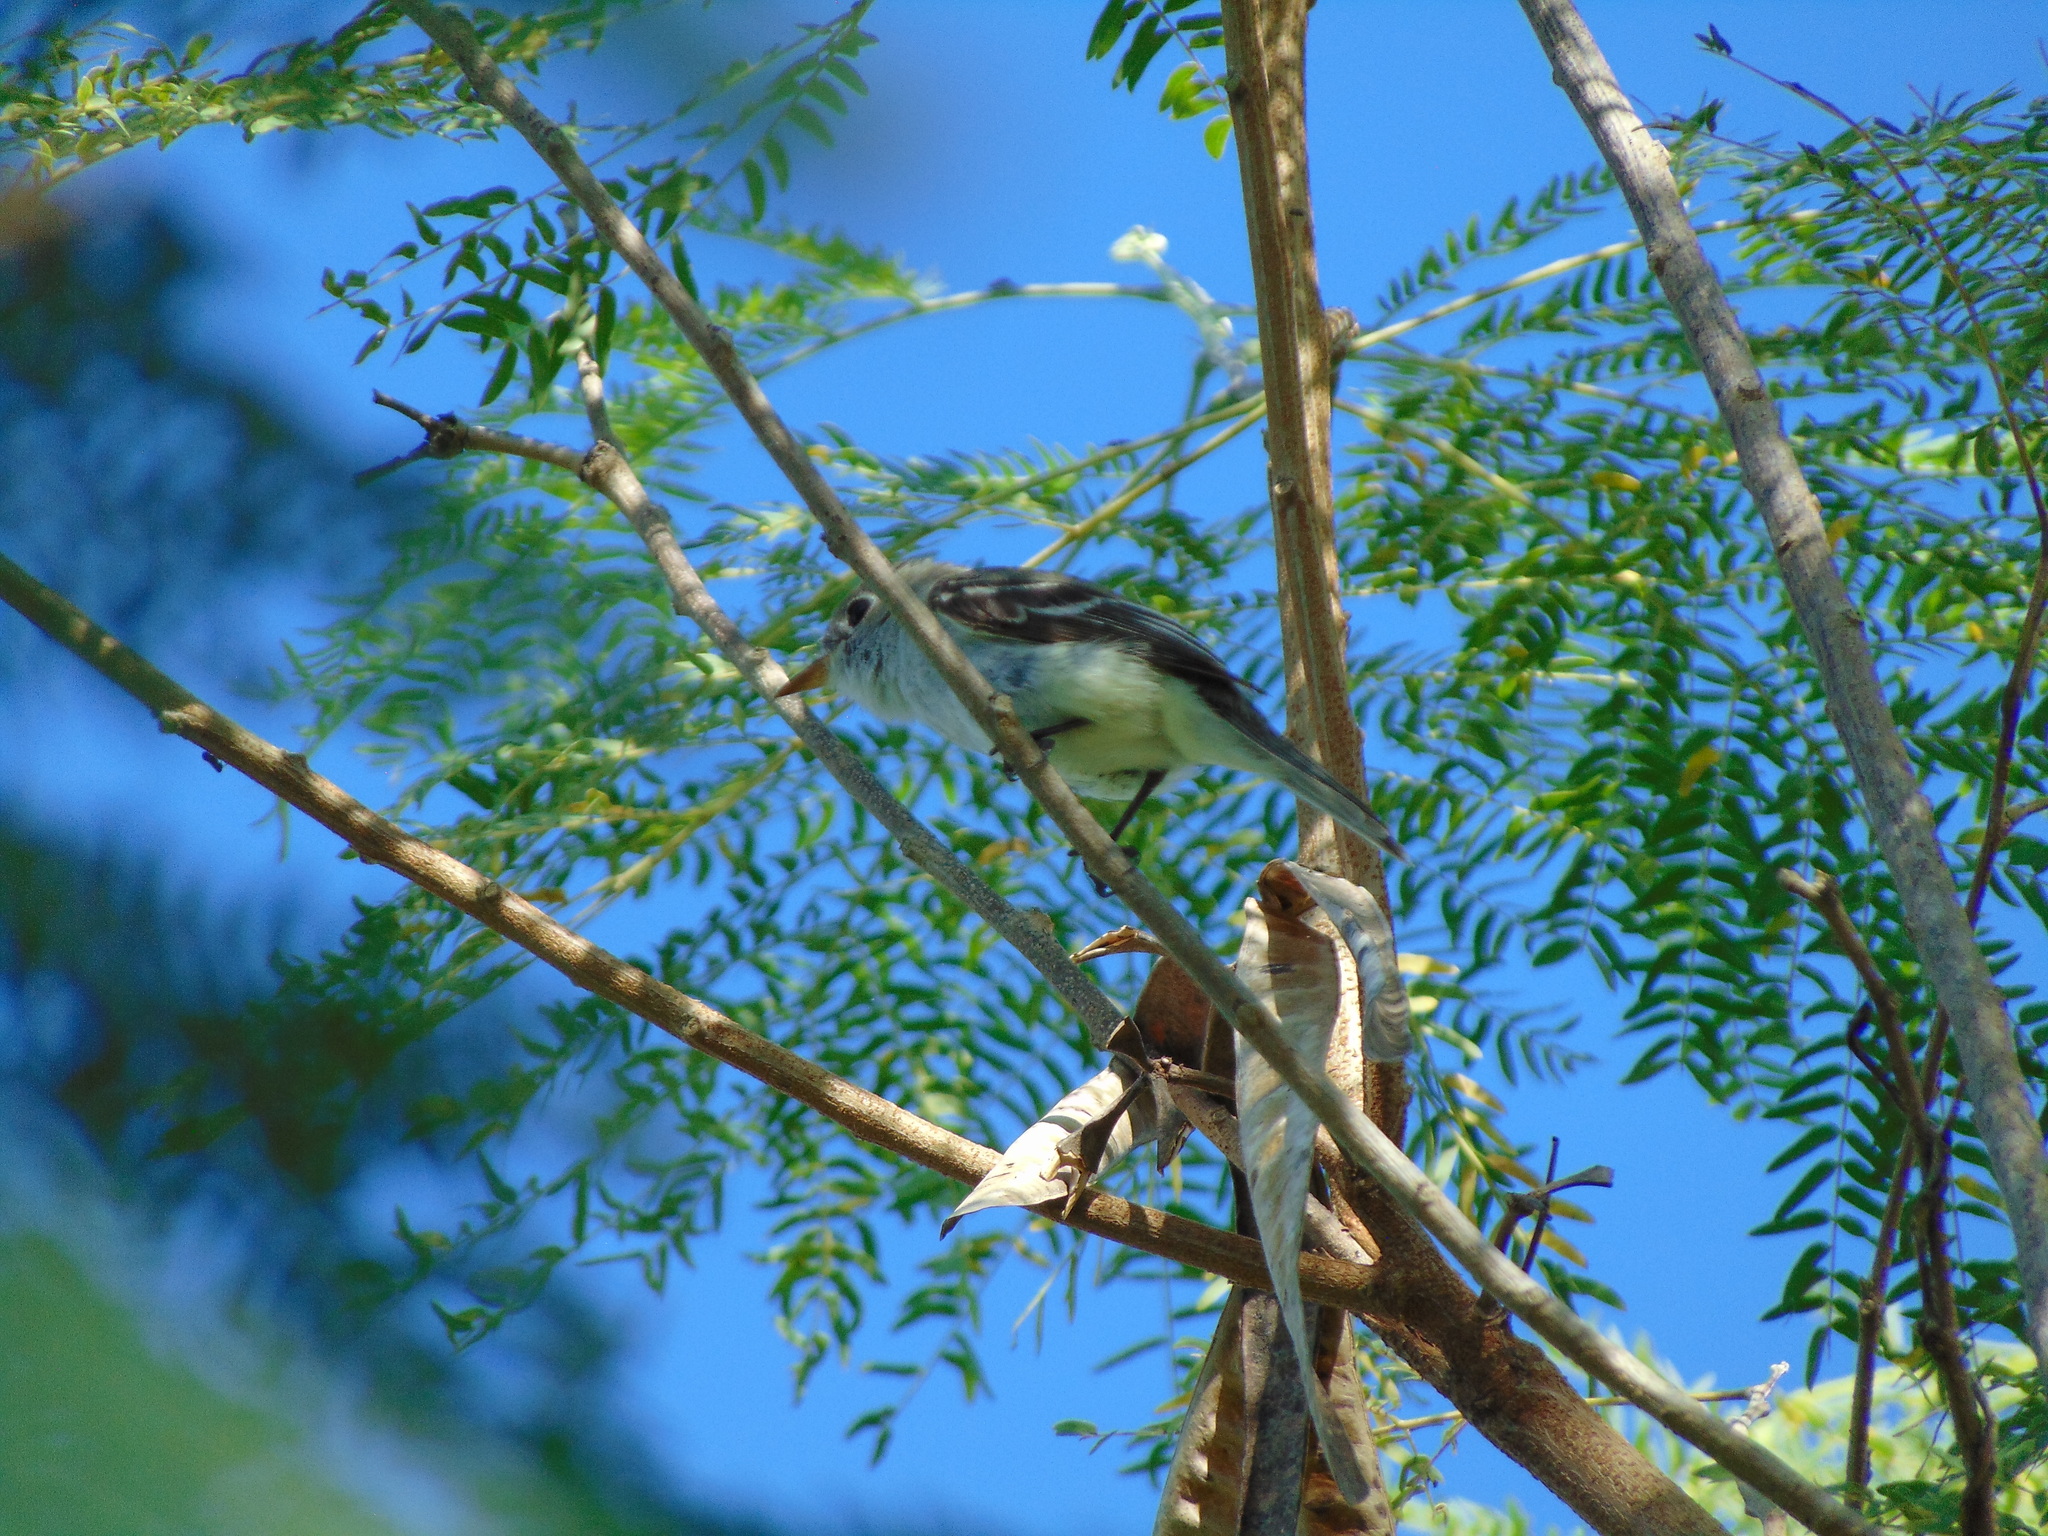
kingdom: Animalia
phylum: Chordata
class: Aves
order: Passeriformes
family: Tyrannidae
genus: Empidonax
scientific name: Empidonax minimus
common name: Least flycatcher
